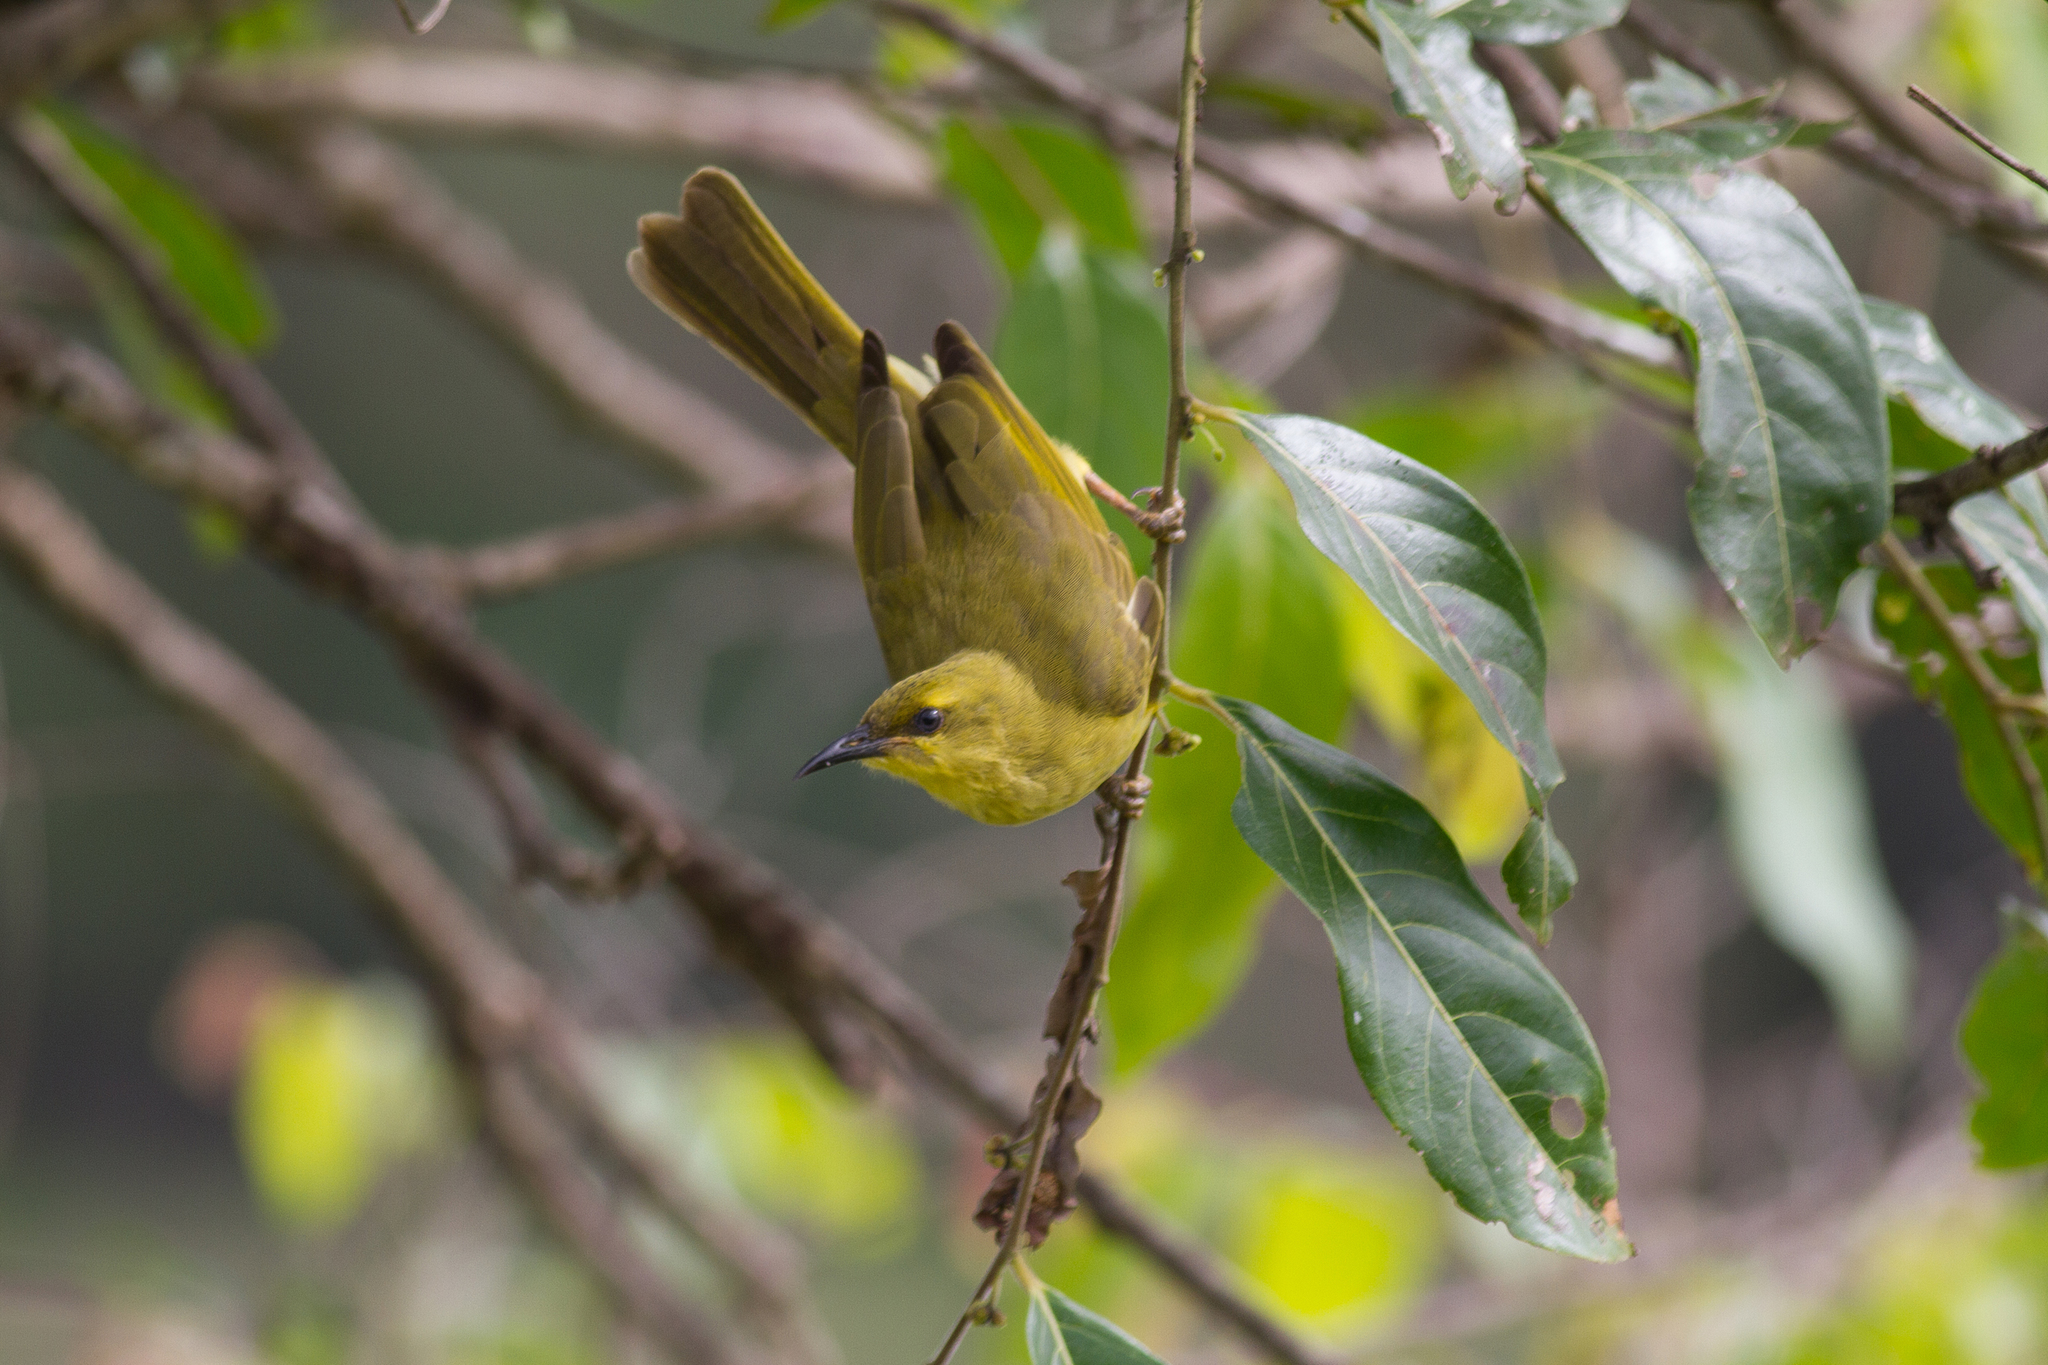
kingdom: Animalia
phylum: Chordata
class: Aves
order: Passeriformes
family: Meliphagidae
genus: Stomiopera
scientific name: Stomiopera flava
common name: Yellow honeyeater
